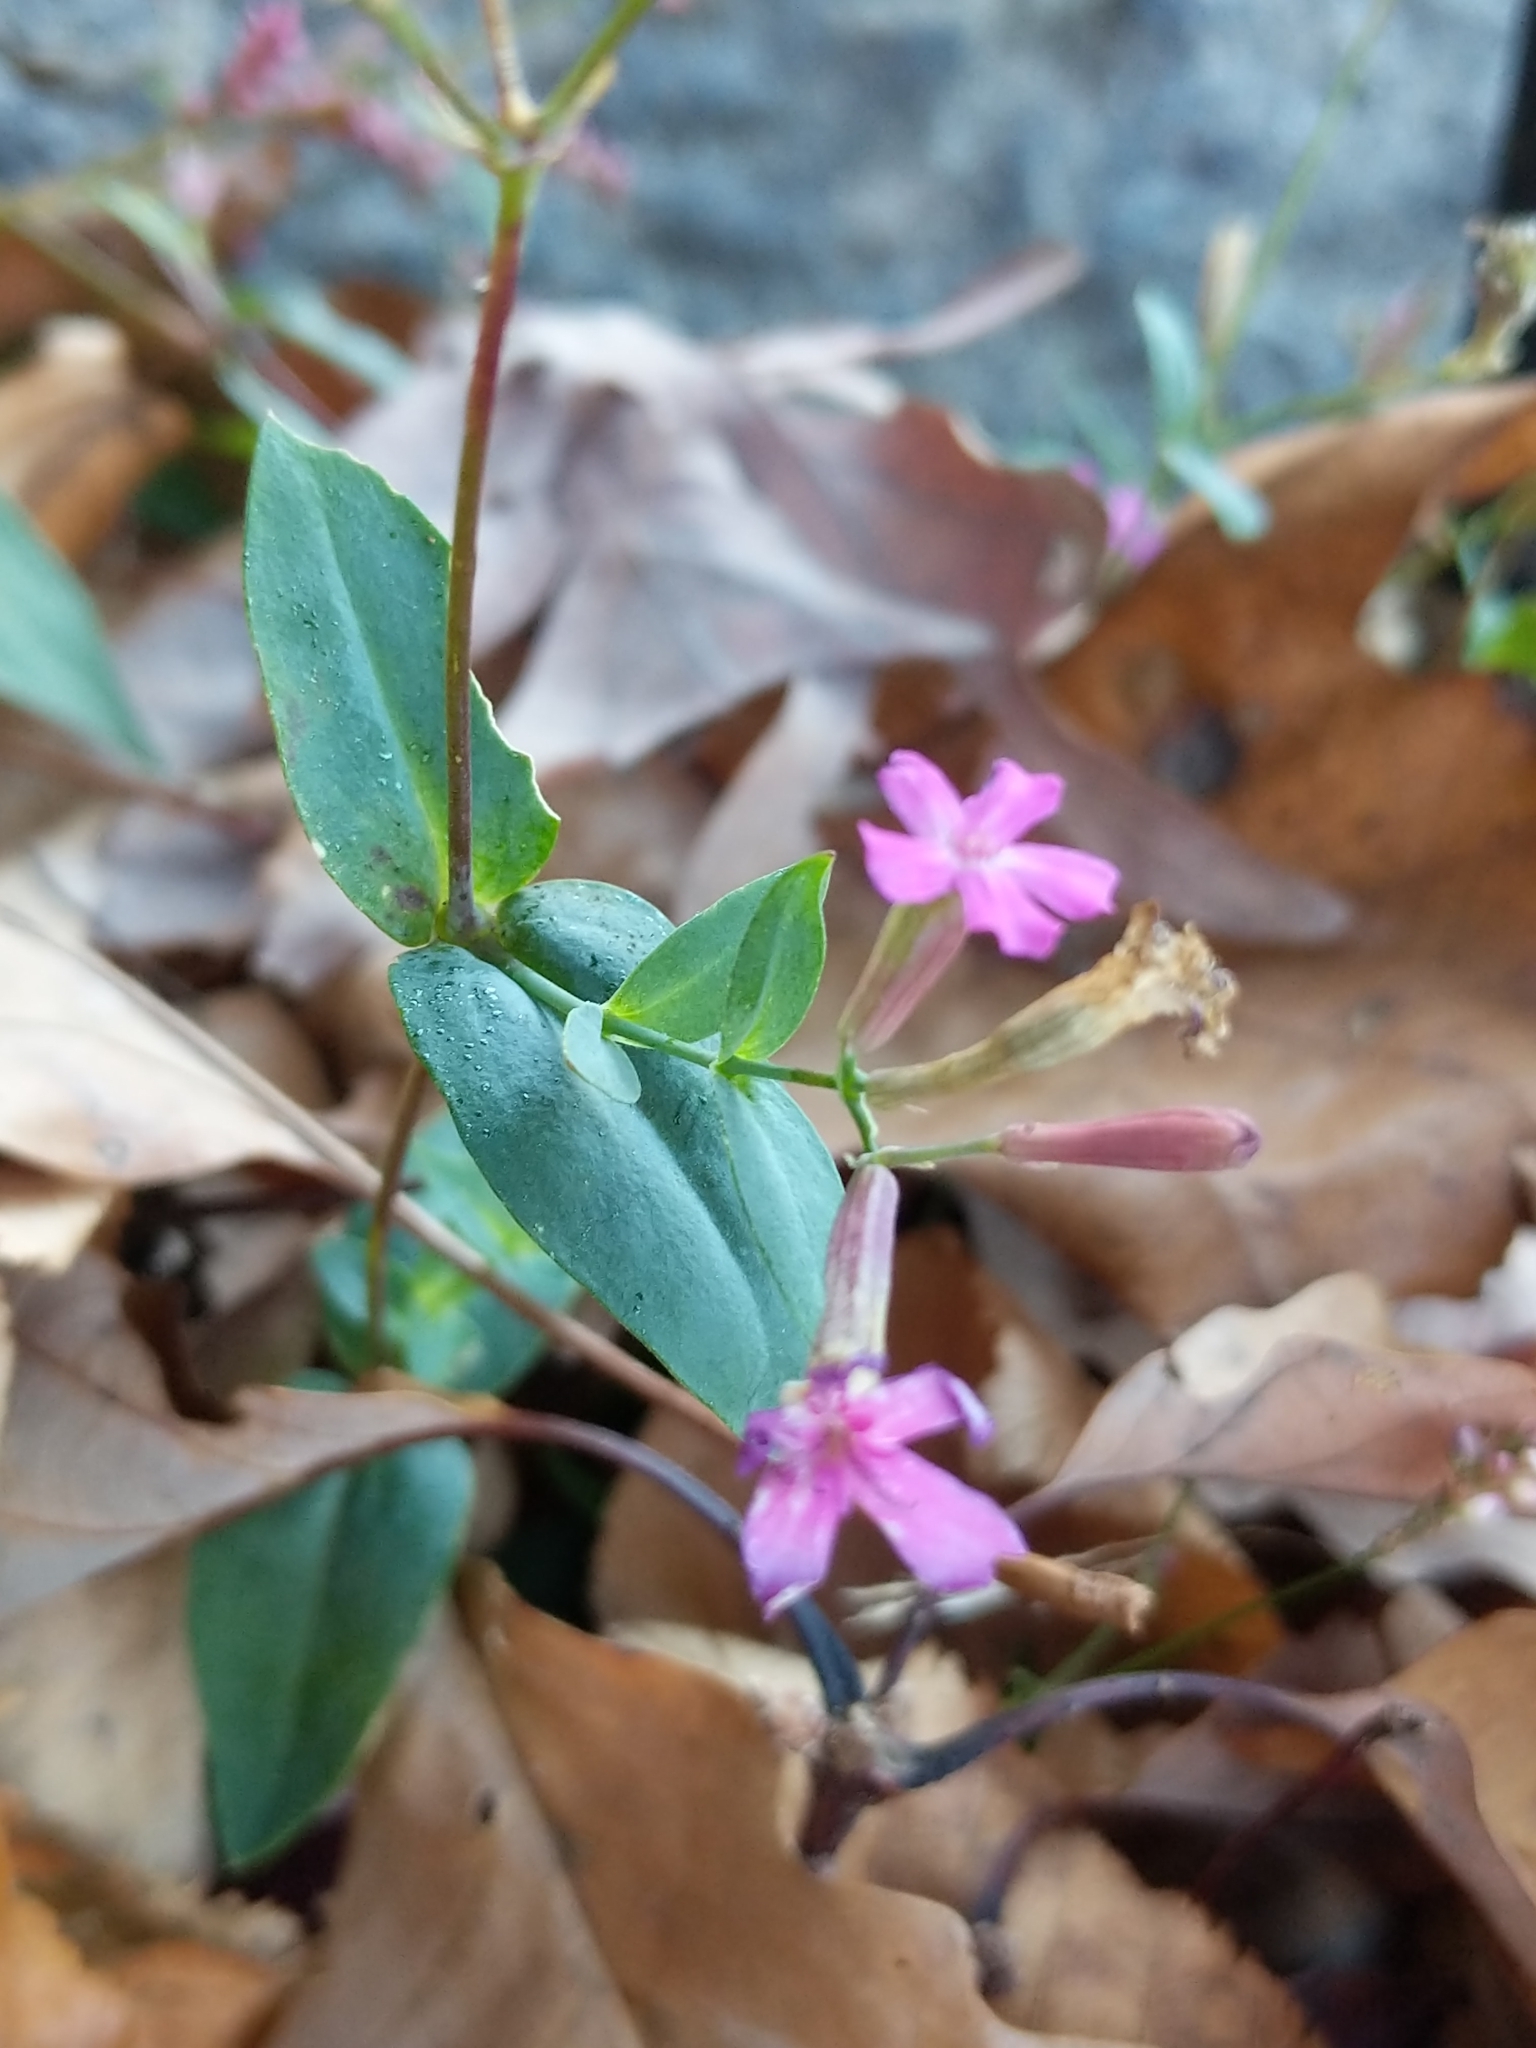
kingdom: Plantae
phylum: Tracheophyta
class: Magnoliopsida
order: Caryophyllales
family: Caryophyllaceae
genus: Atocion
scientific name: Atocion armeria
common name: Sweet william catchfly
